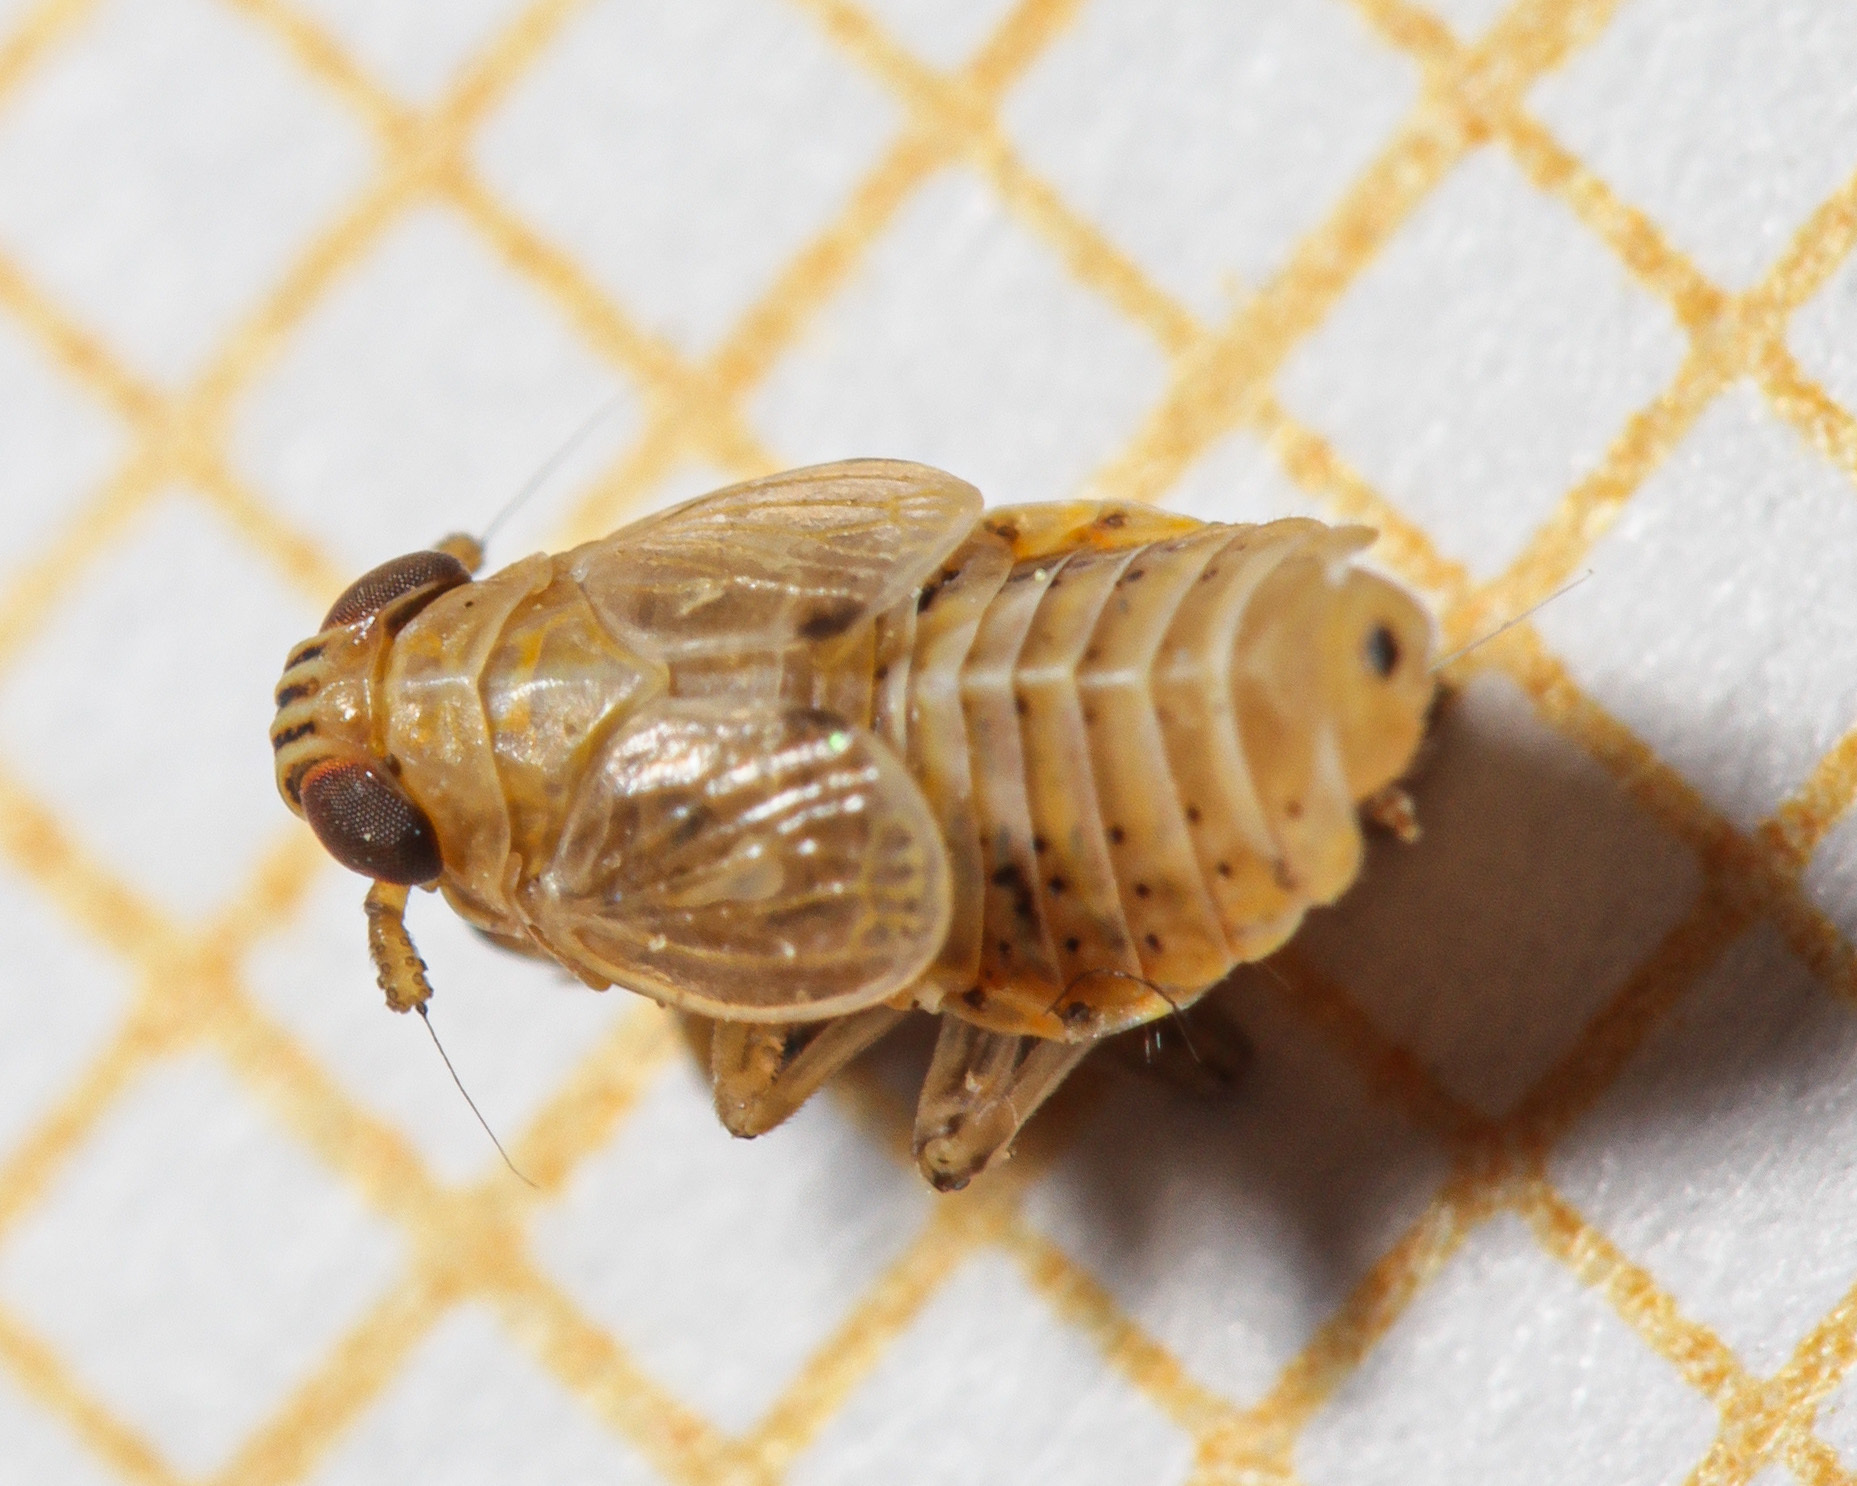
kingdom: Animalia
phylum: Arthropoda
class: Insecta
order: Hemiptera
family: Delphacidae
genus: Dicranotropis
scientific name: Dicranotropis hamata
